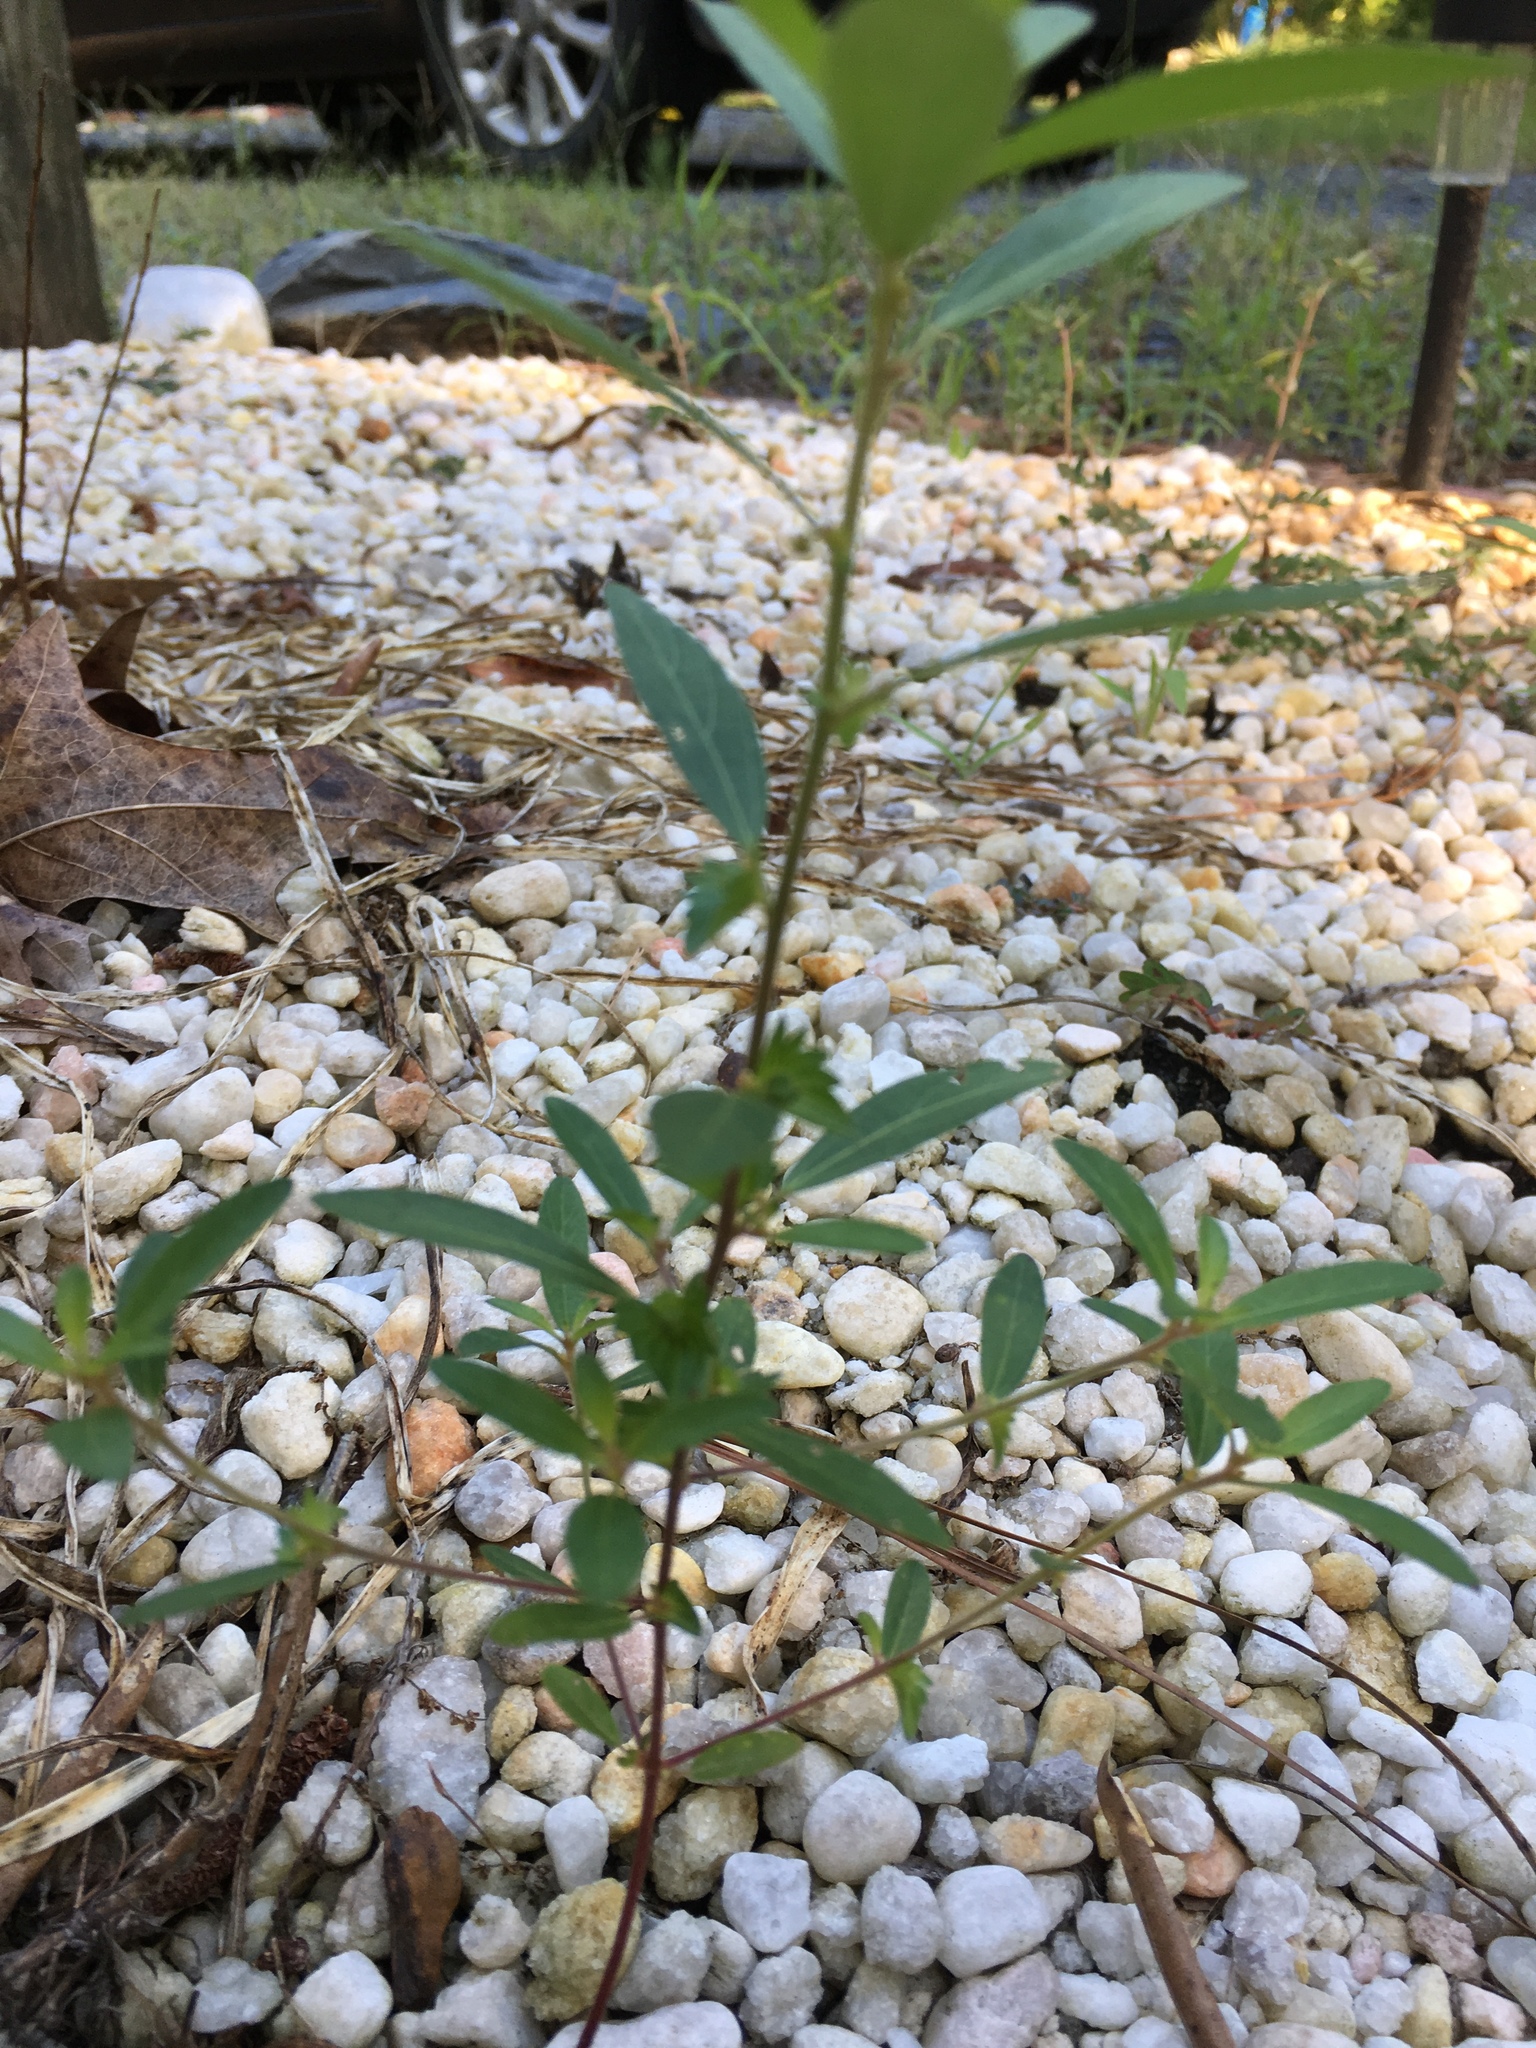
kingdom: Plantae
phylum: Tracheophyta
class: Magnoliopsida
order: Malpighiales
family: Euphorbiaceae
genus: Acalypha
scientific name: Acalypha gracilens
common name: Slender three-seeded mercury
